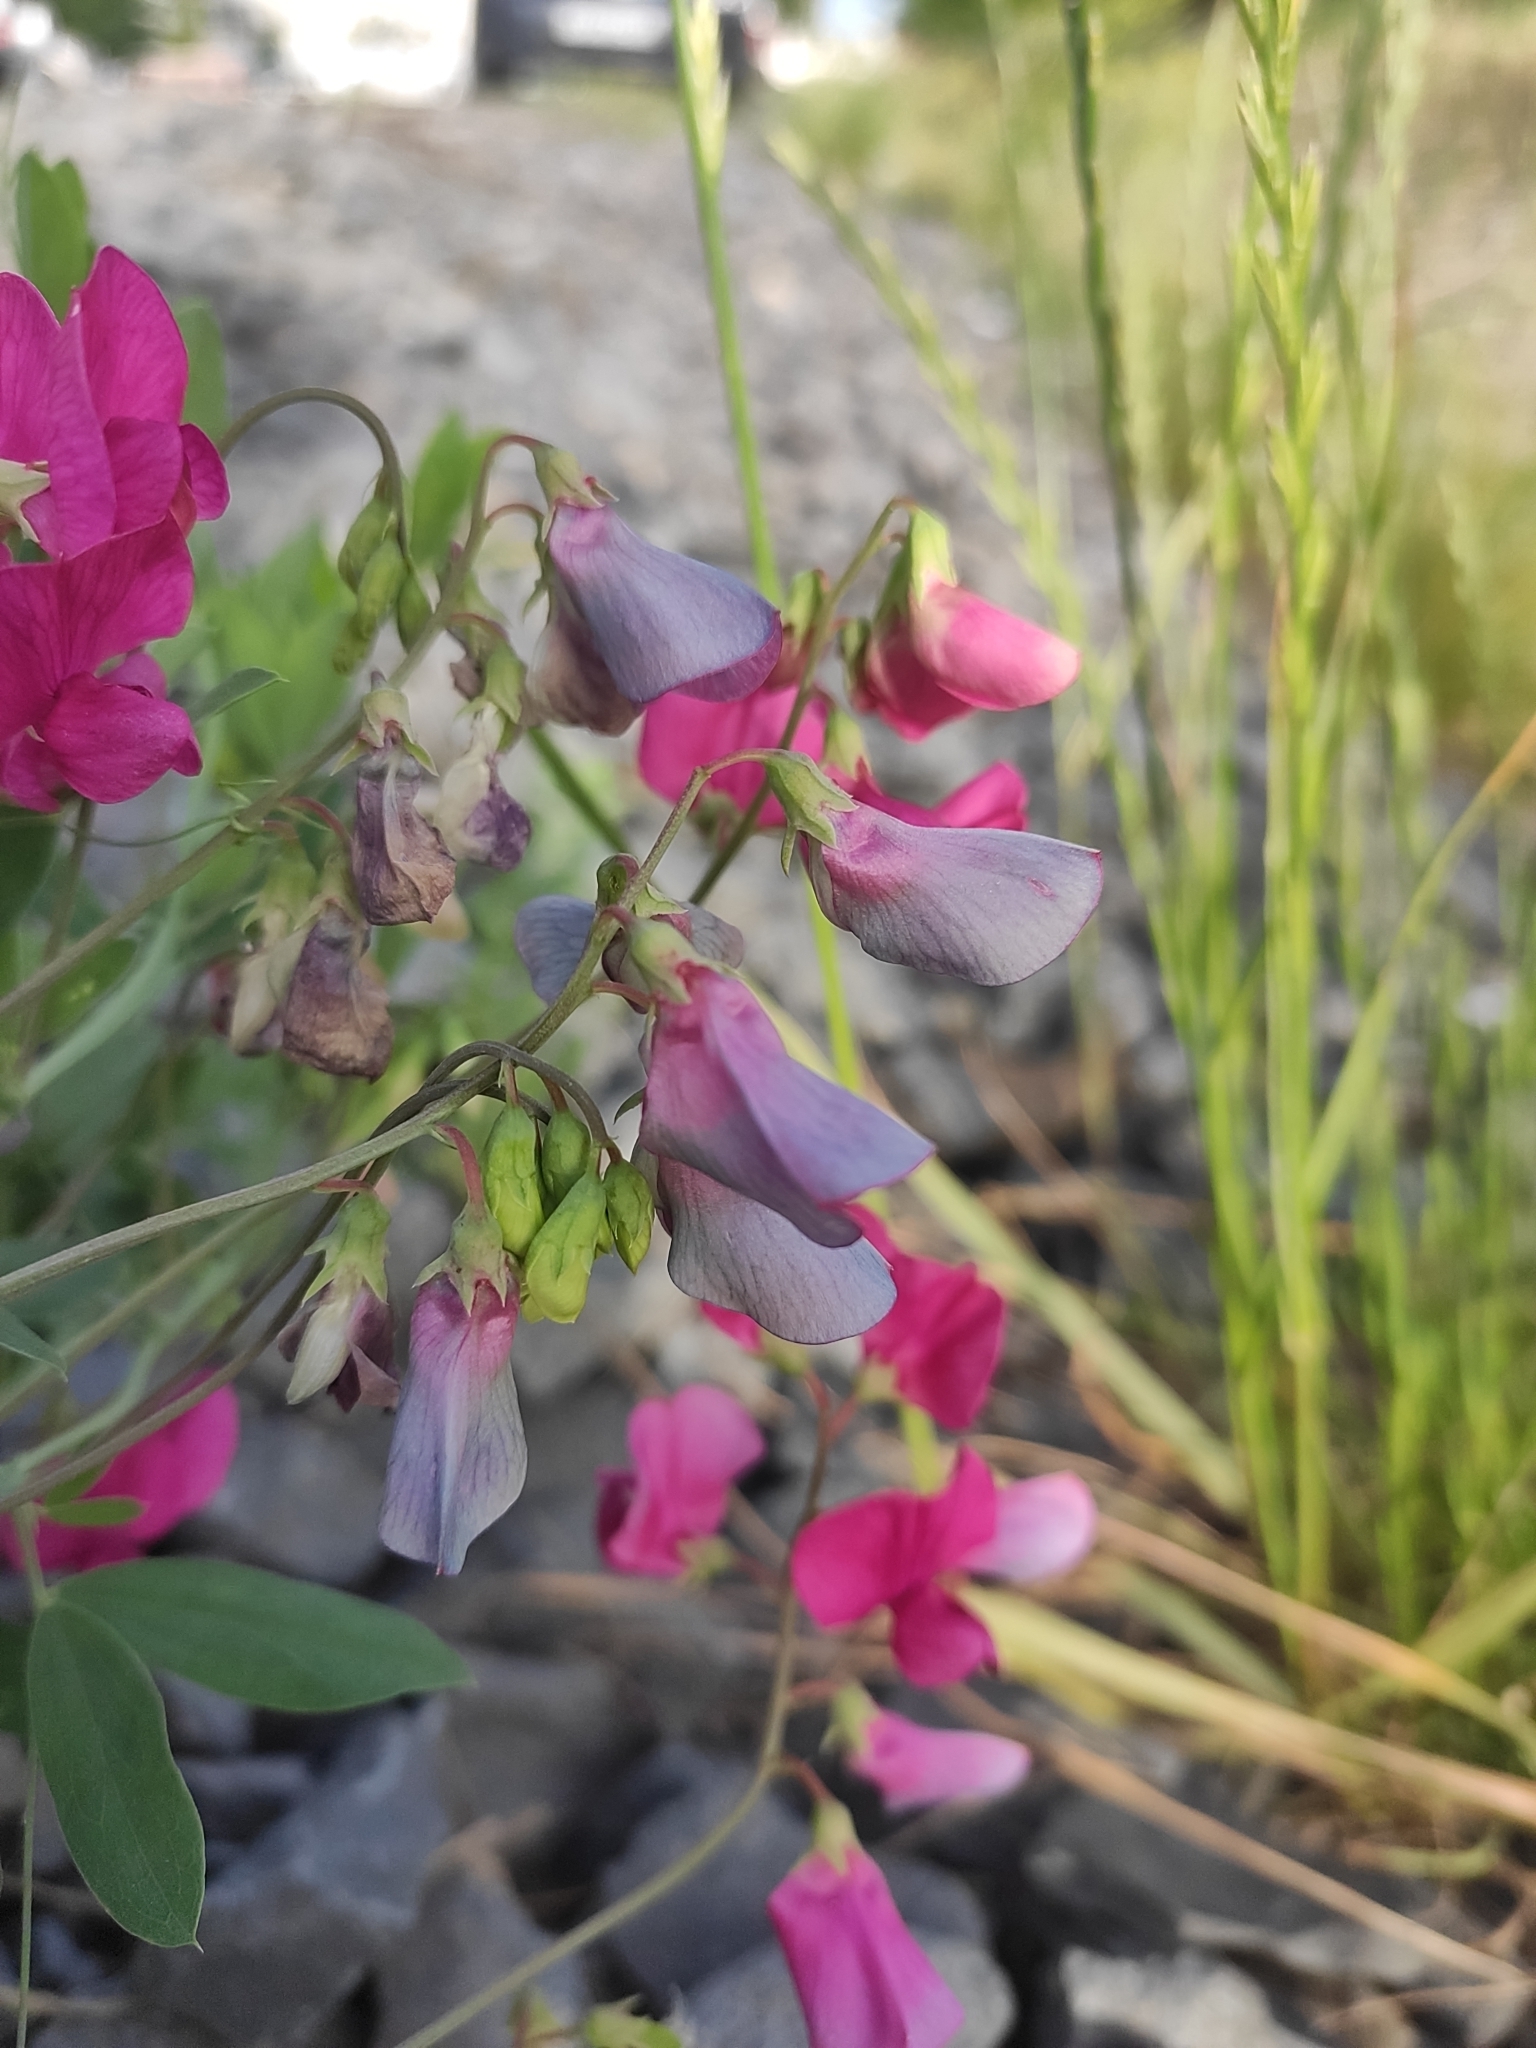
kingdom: Plantae
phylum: Tracheophyta
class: Magnoliopsida
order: Fabales
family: Fabaceae
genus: Lathyrus
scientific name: Lathyrus tuberosus
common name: Tuberous pea
